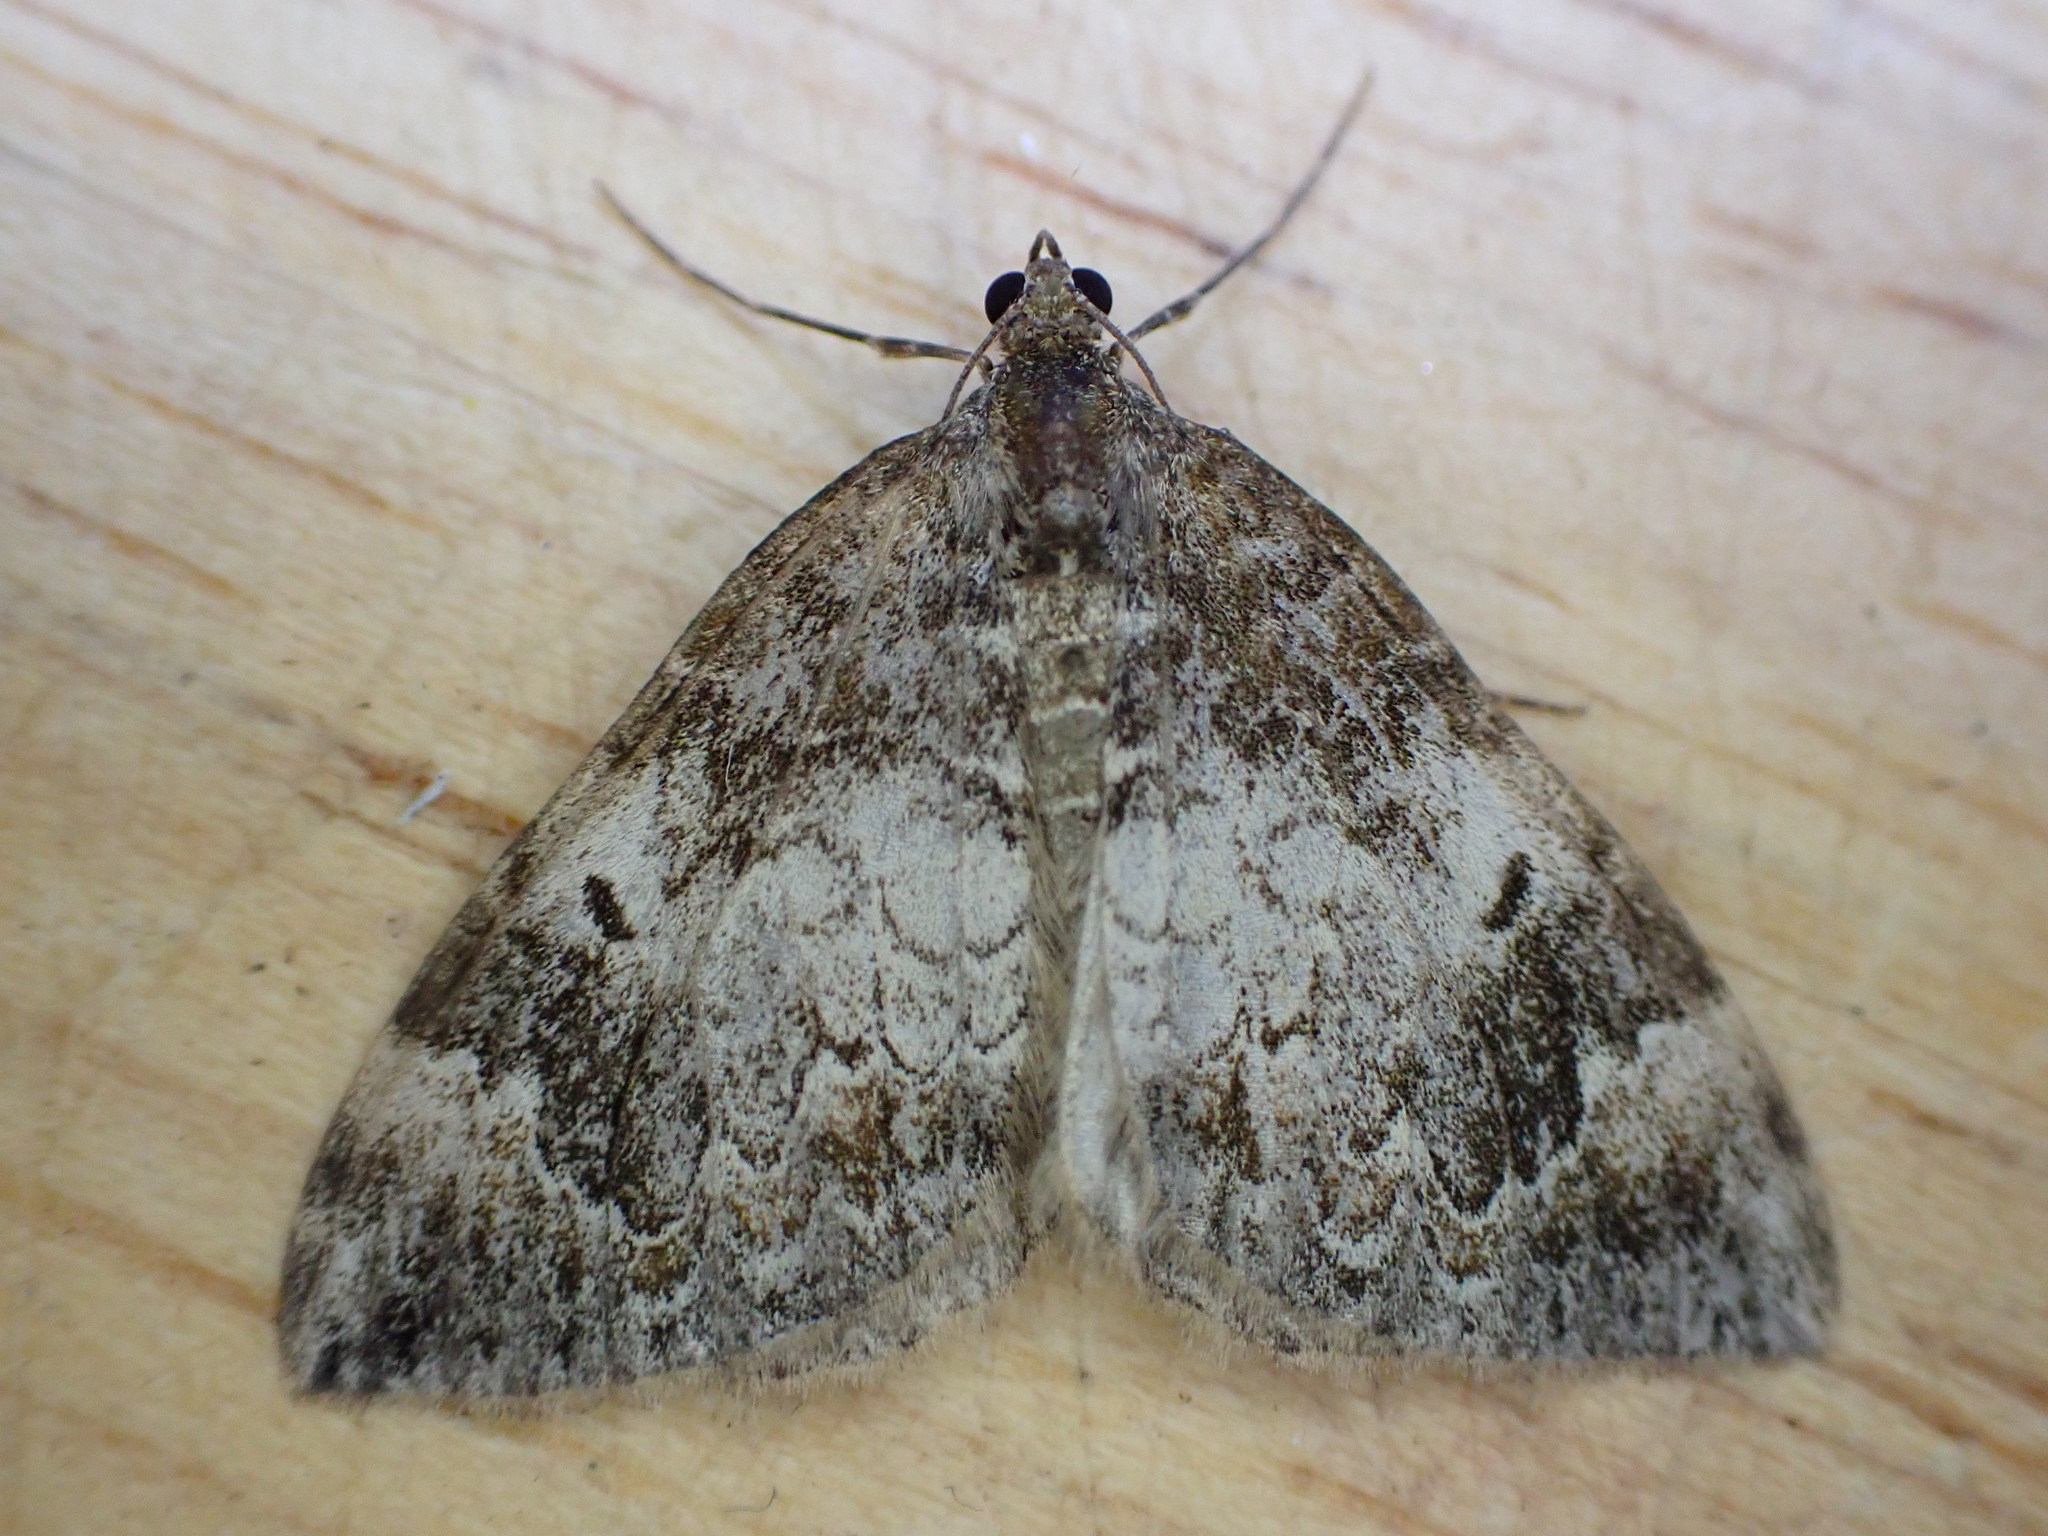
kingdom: Animalia
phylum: Arthropoda
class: Insecta
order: Lepidoptera
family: Geometridae
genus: Dysstroma
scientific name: Dysstroma truncata
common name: Common marbled carpet
